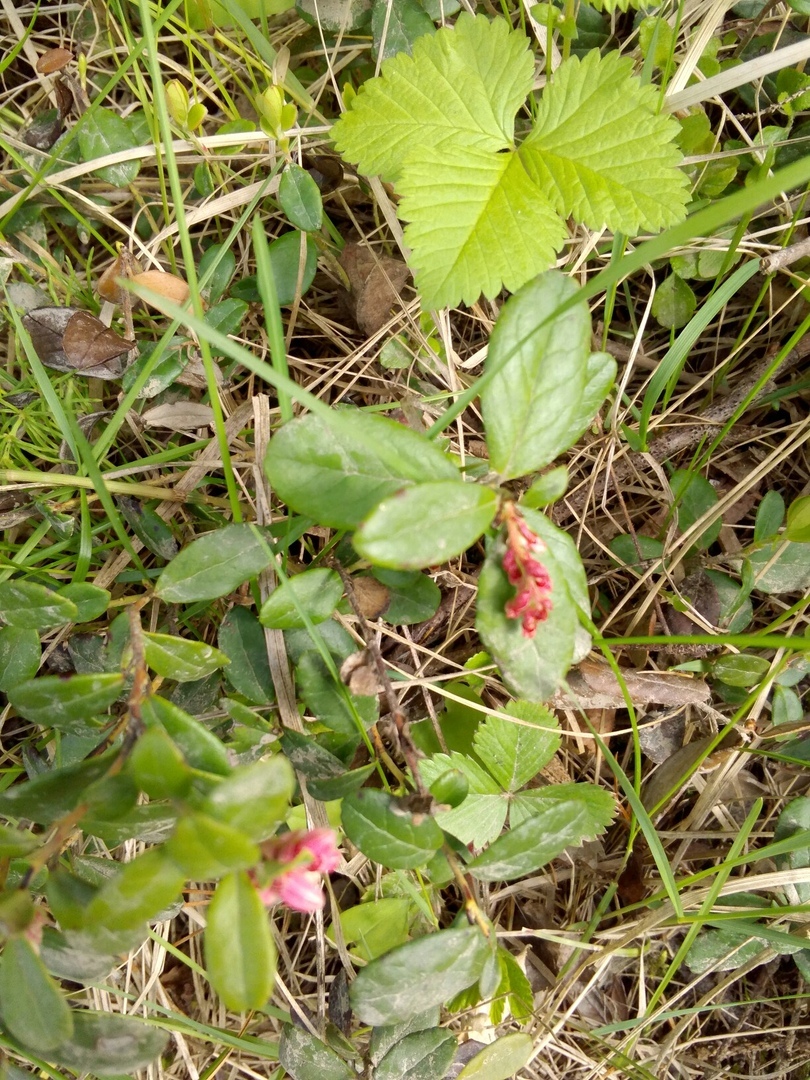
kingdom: Plantae
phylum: Tracheophyta
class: Magnoliopsida
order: Ericales
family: Ericaceae
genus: Vaccinium
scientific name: Vaccinium vitis-idaea
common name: Cowberry
